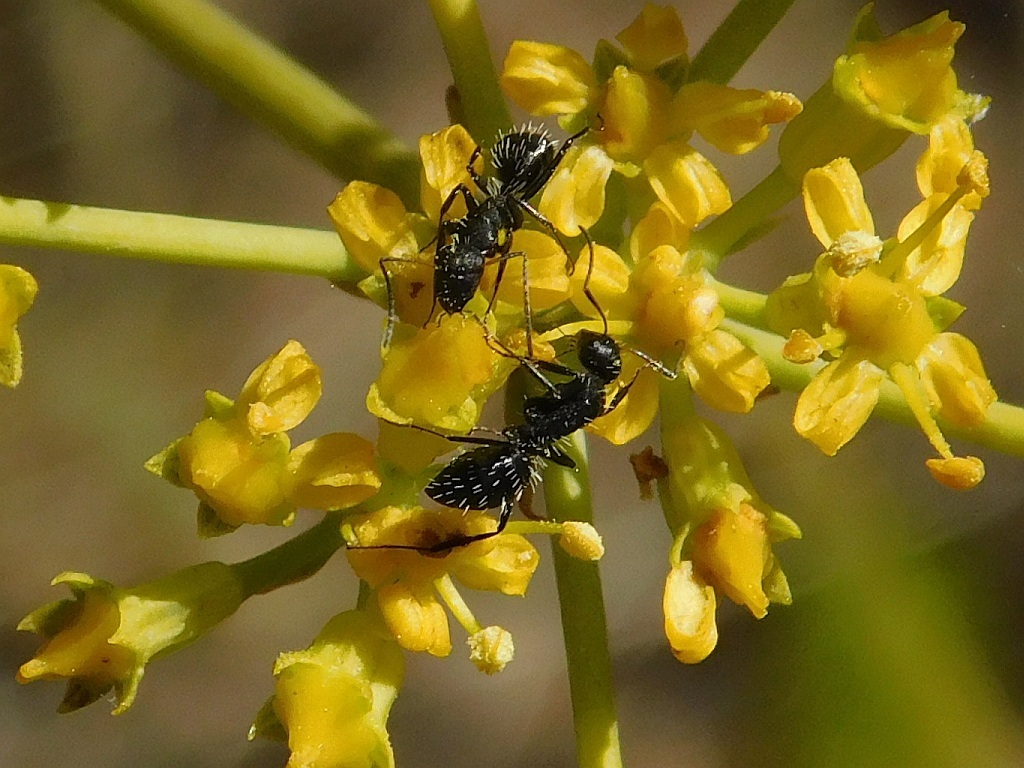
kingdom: Animalia
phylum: Arthropoda
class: Insecta
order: Hymenoptera
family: Formicidae
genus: Camponotus
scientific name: Camponotus niveosetosus
